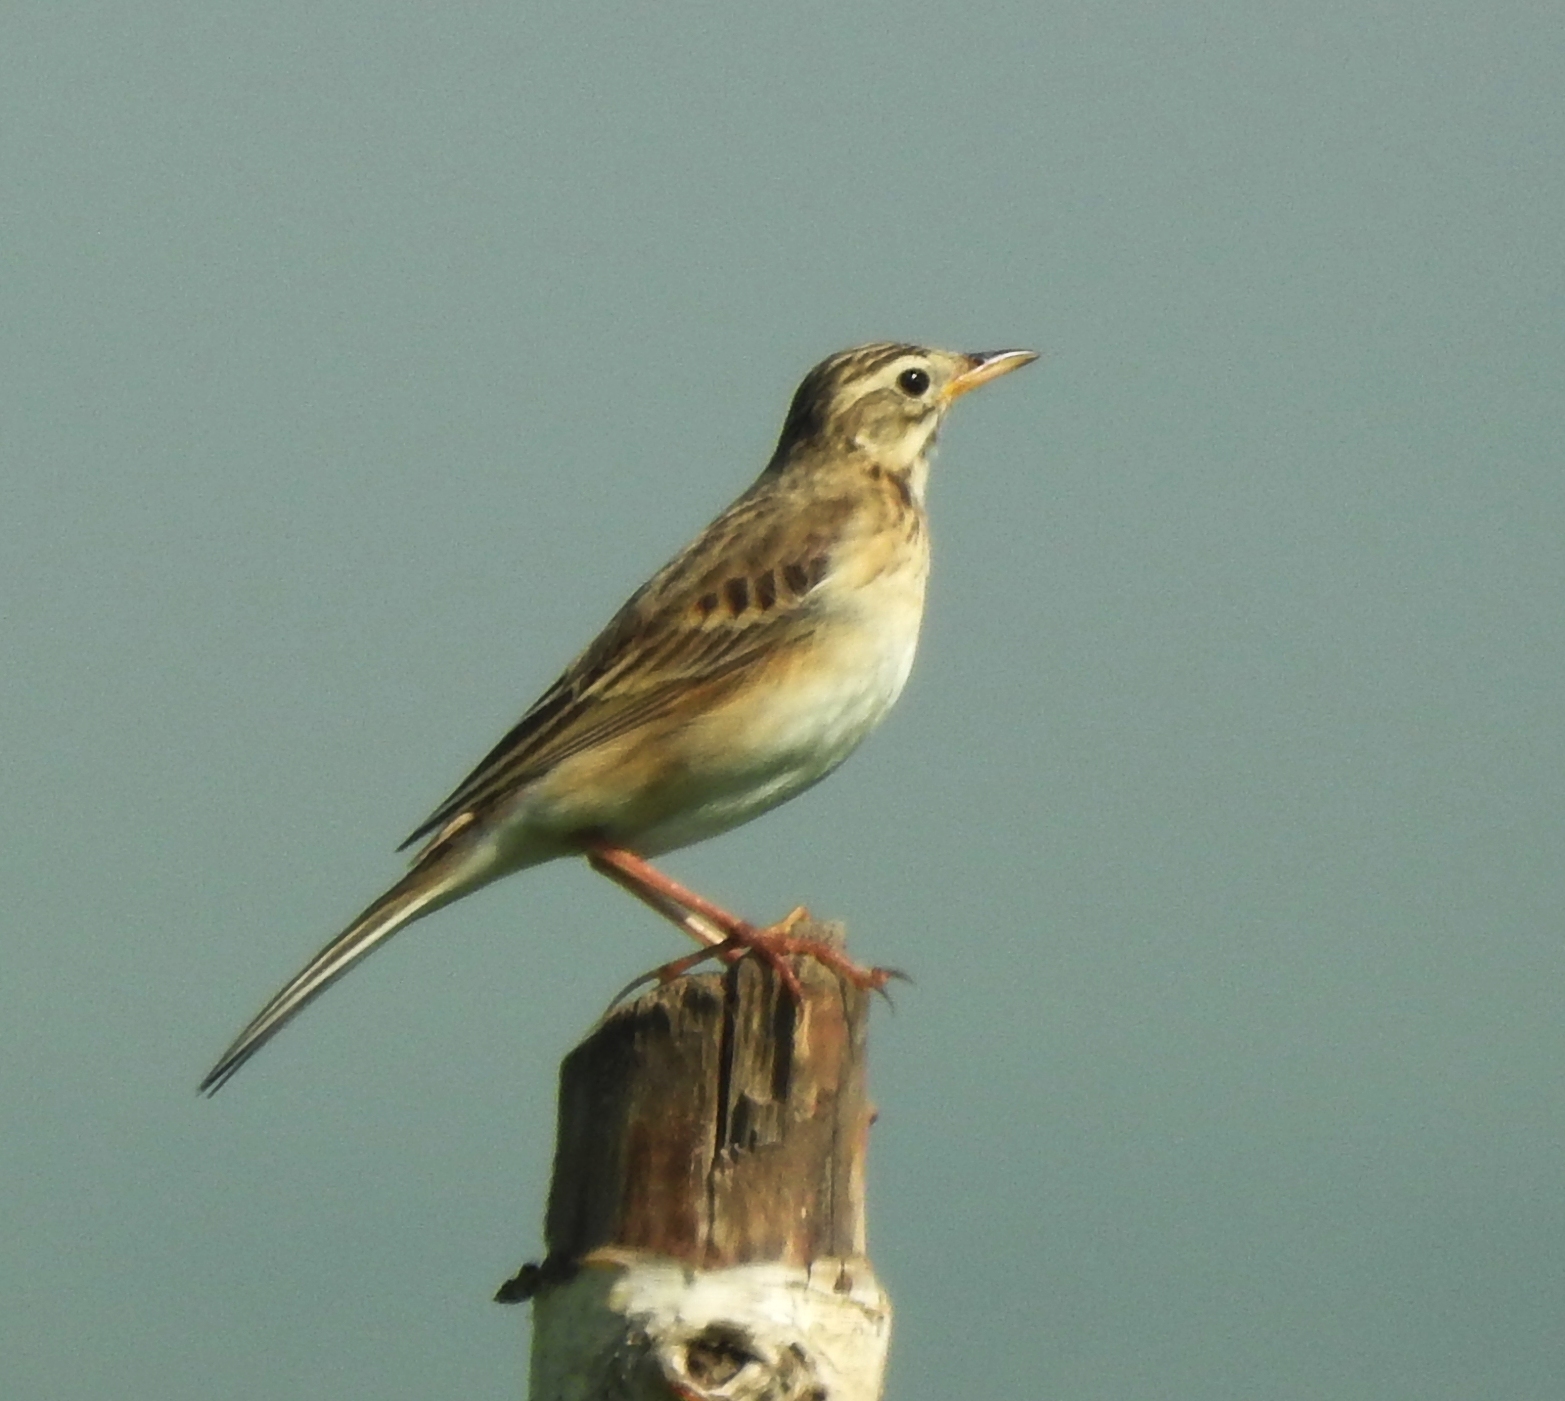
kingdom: Animalia
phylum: Chordata
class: Aves
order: Passeriformes
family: Motacillidae
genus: Anthus
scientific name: Anthus richardi
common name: Richard's pipit
